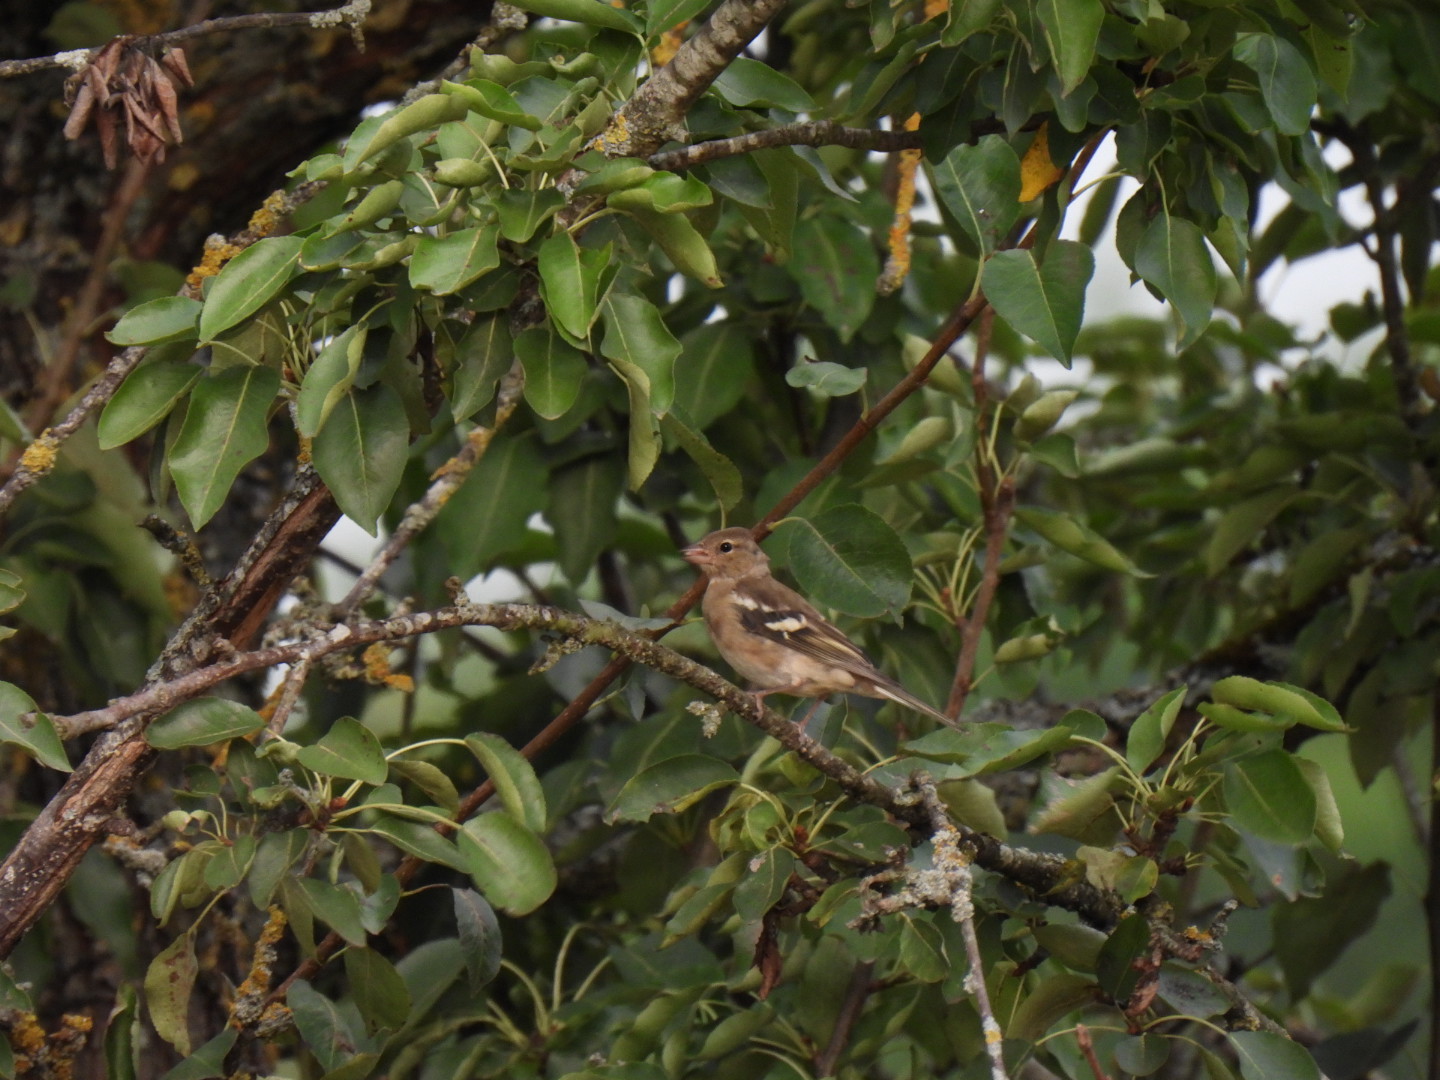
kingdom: Animalia
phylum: Chordata
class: Aves
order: Passeriformes
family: Fringillidae
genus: Fringilla
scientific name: Fringilla coelebs
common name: Common chaffinch
